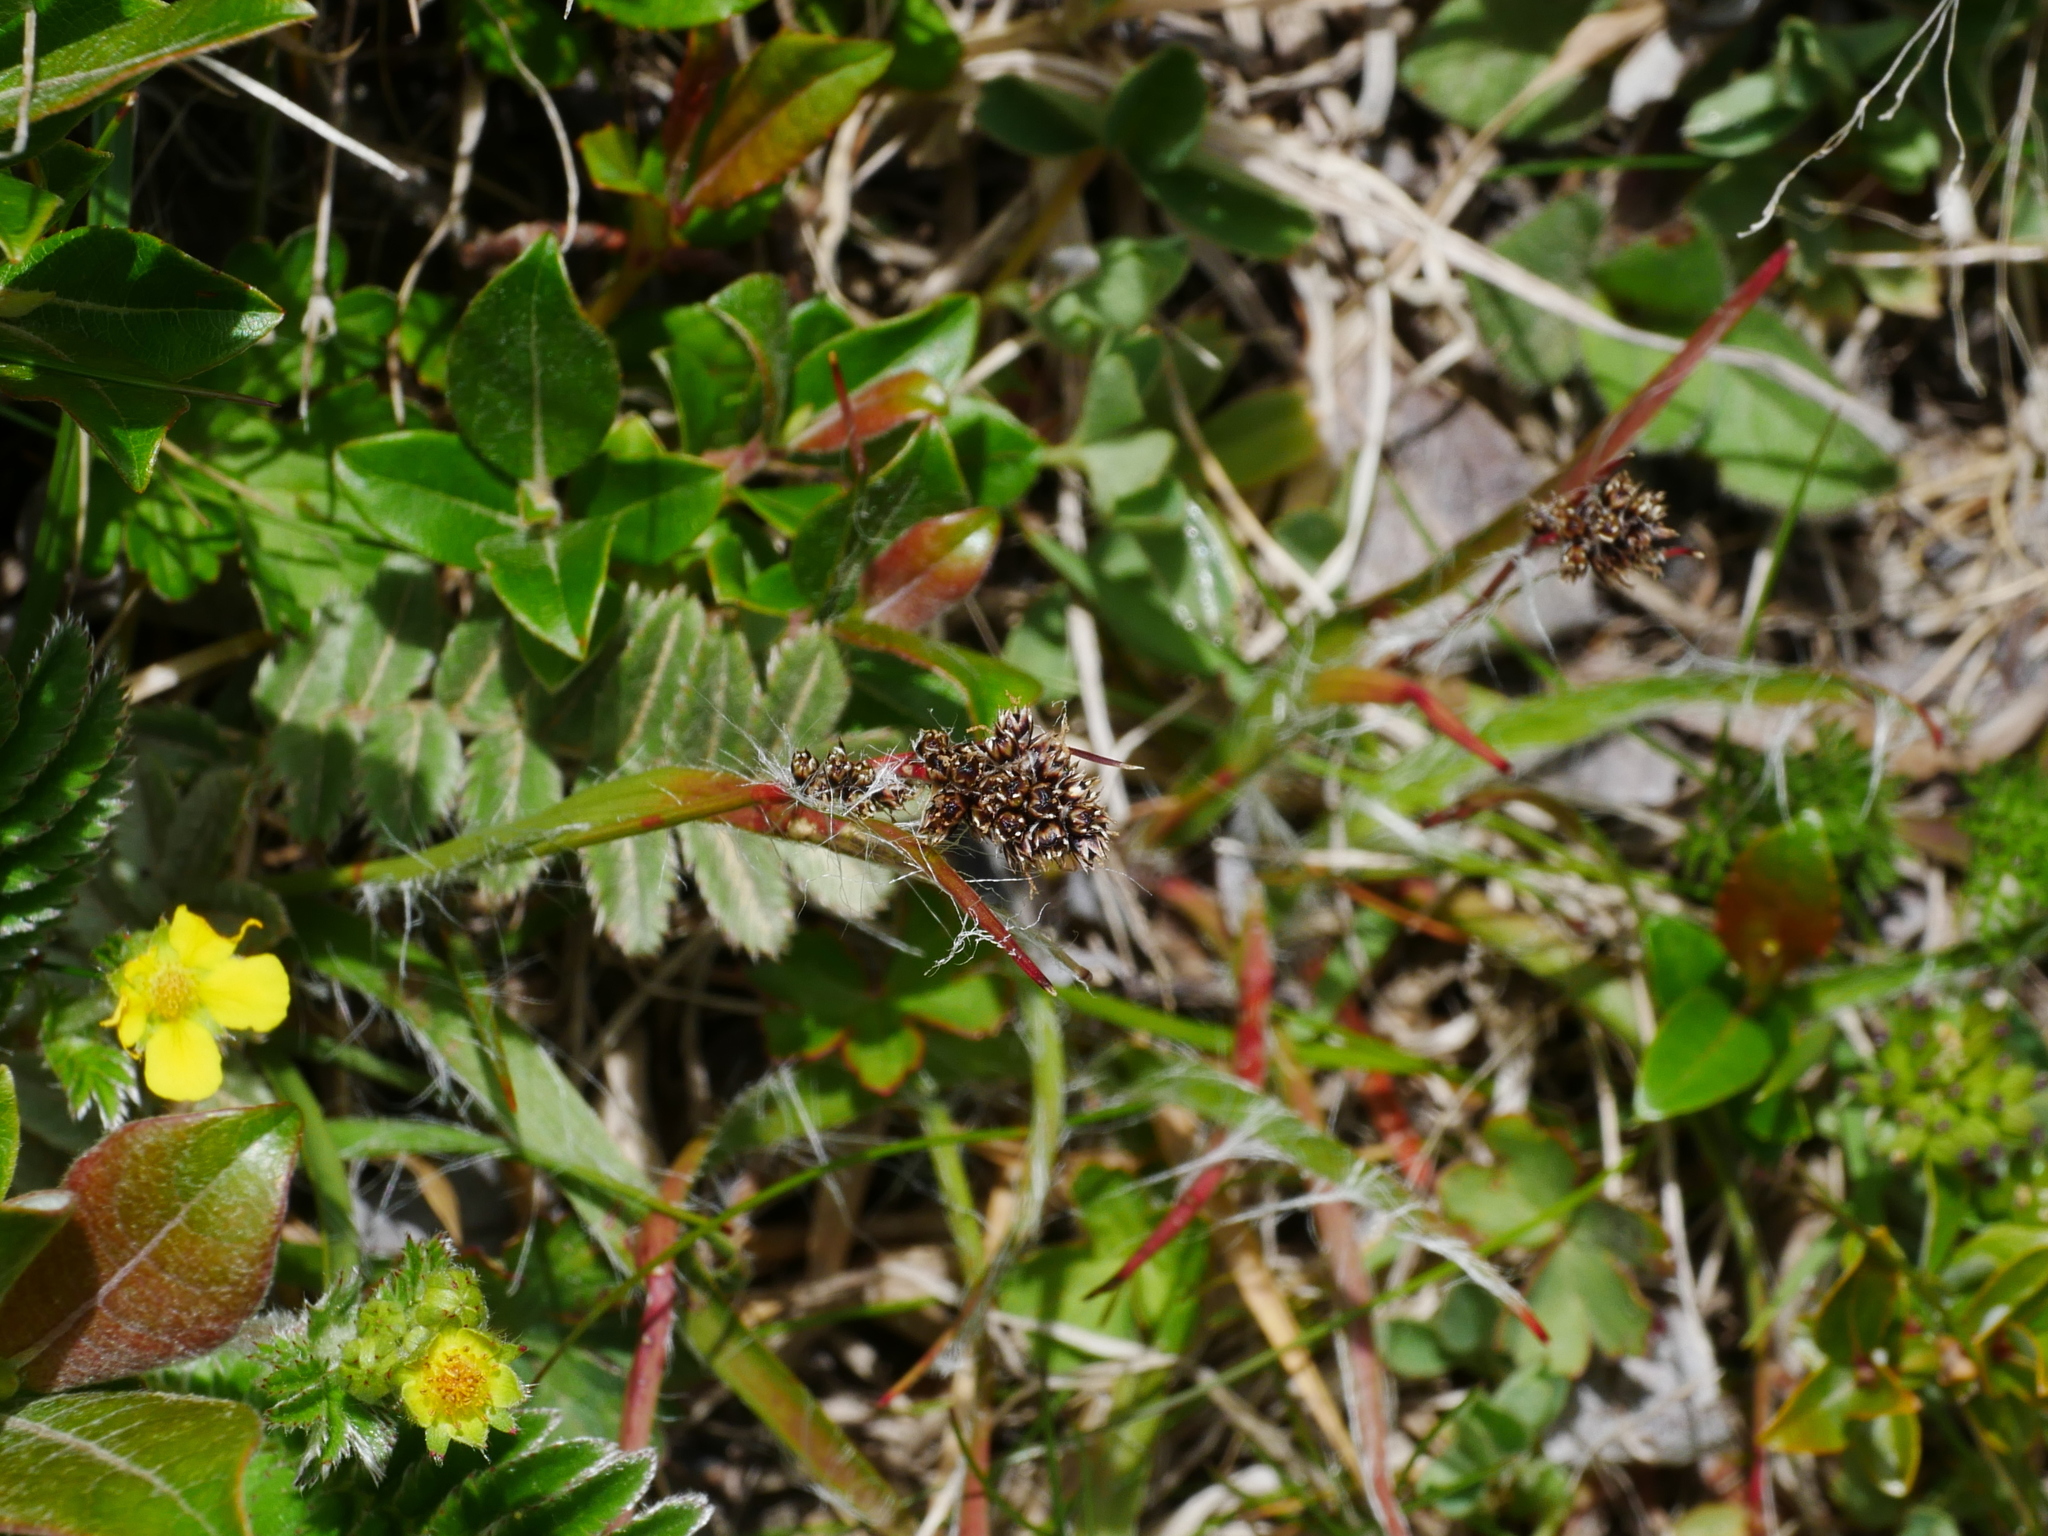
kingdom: Plantae
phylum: Tracheophyta
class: Liliopsida
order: Poales
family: Juncaceae
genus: Luzula
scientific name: Luzula taiwaniana
